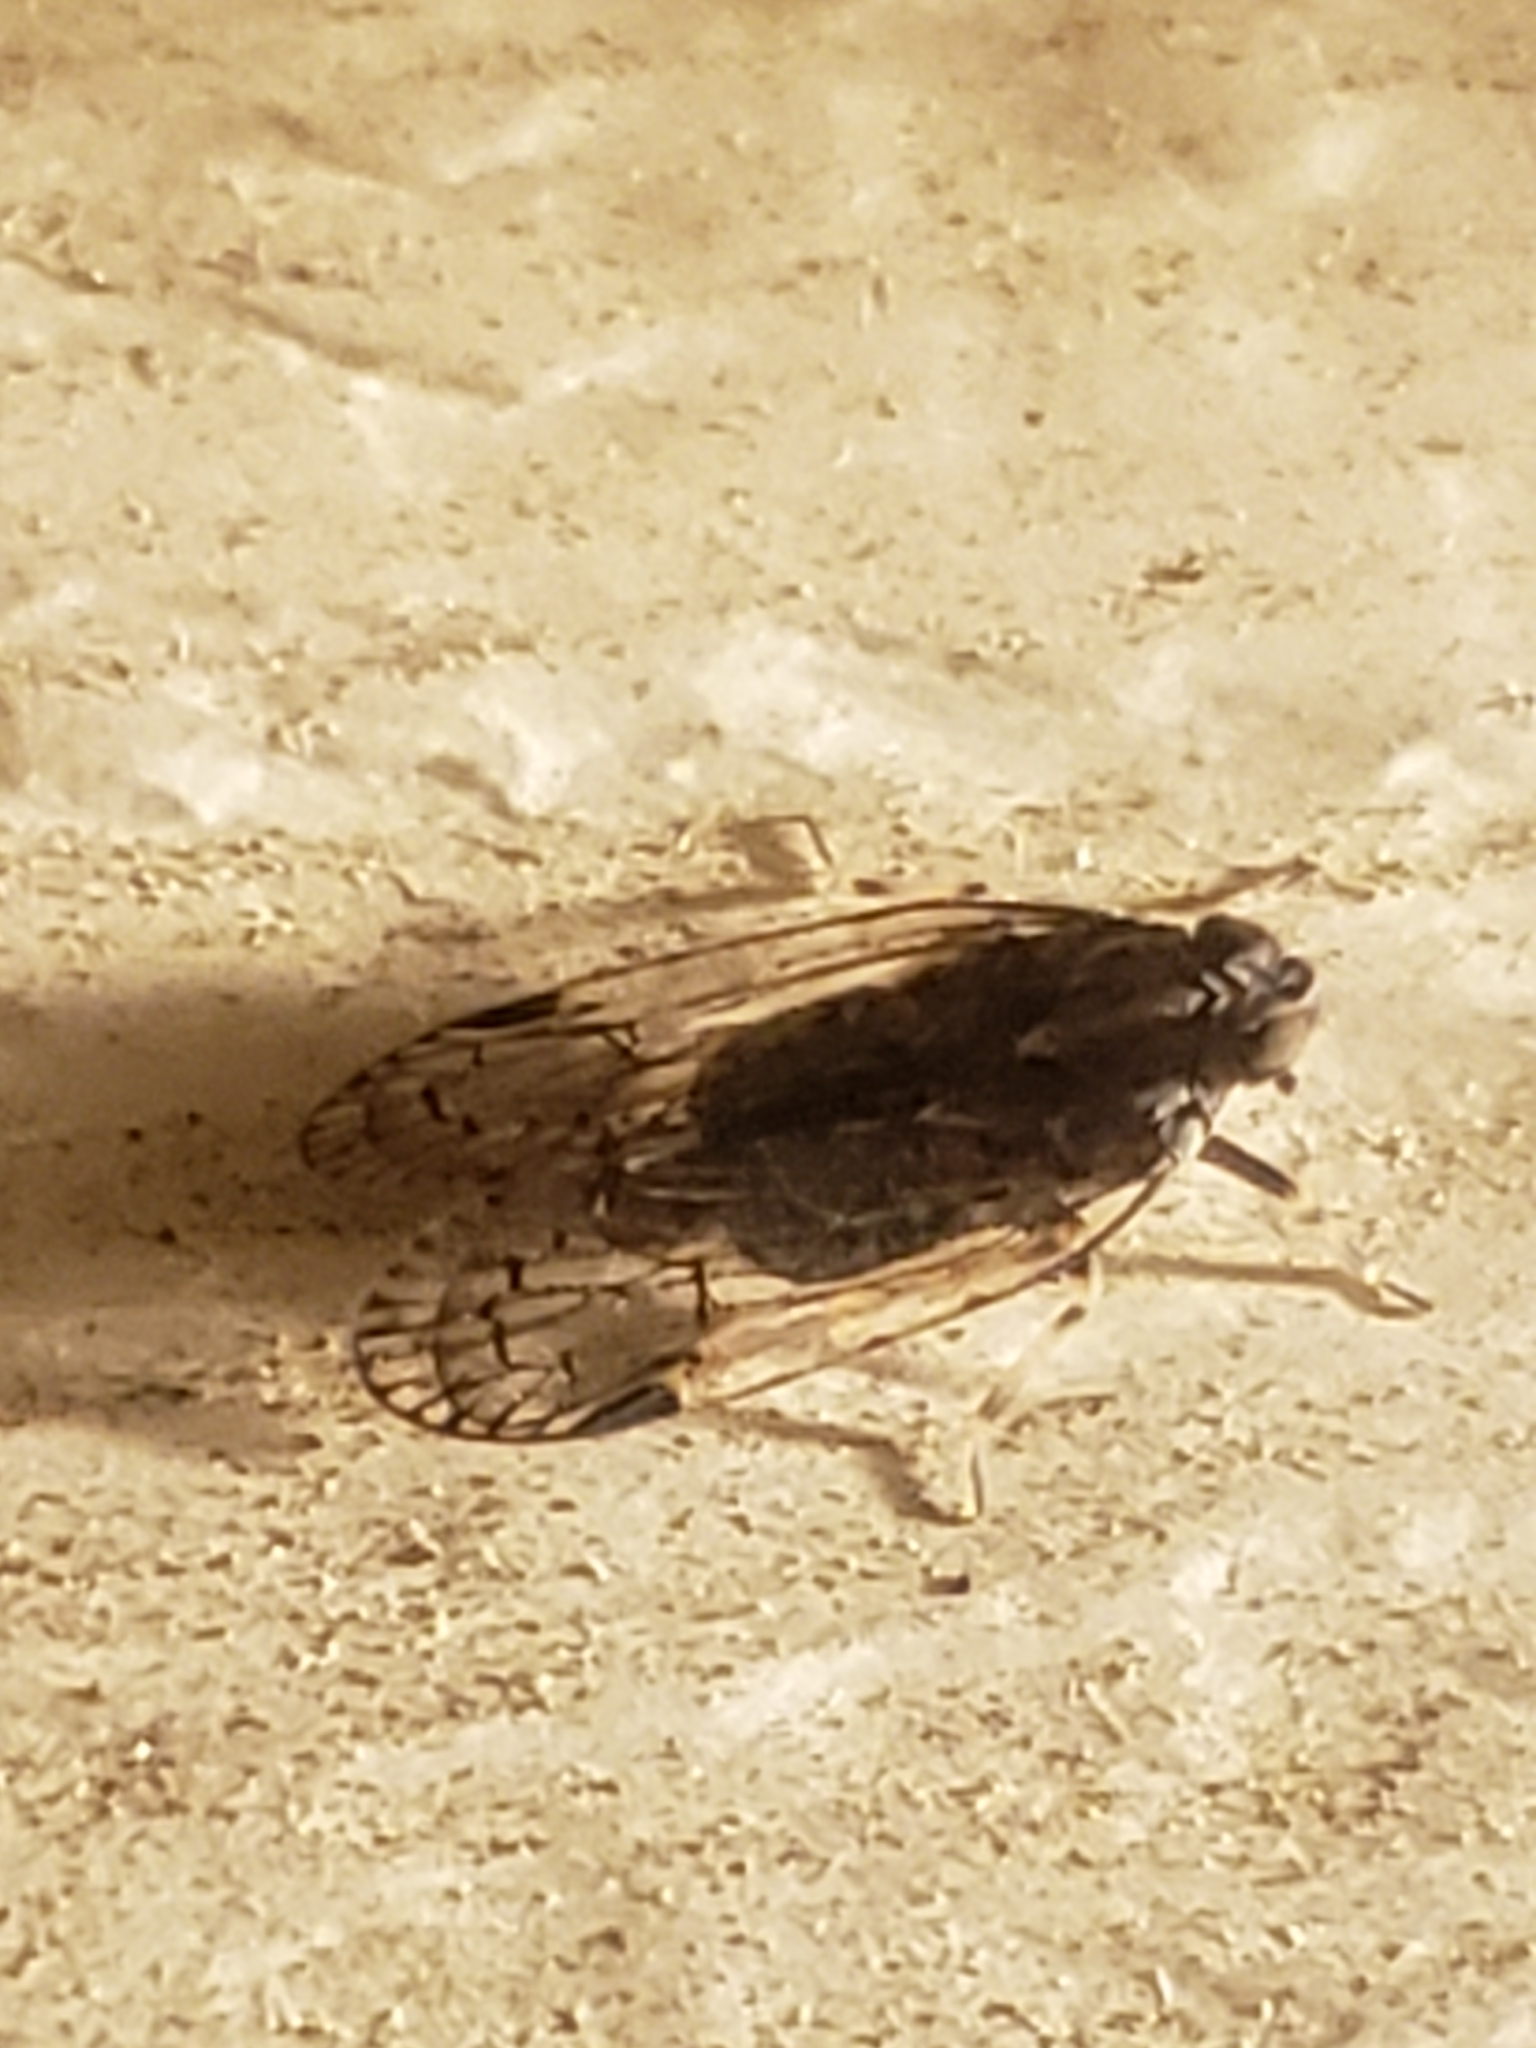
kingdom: Animalia
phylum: Arthropoda
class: Insecta
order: Hemiptera
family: Cixiidae
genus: Melanoliarus
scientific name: Melanoliarus placitus
